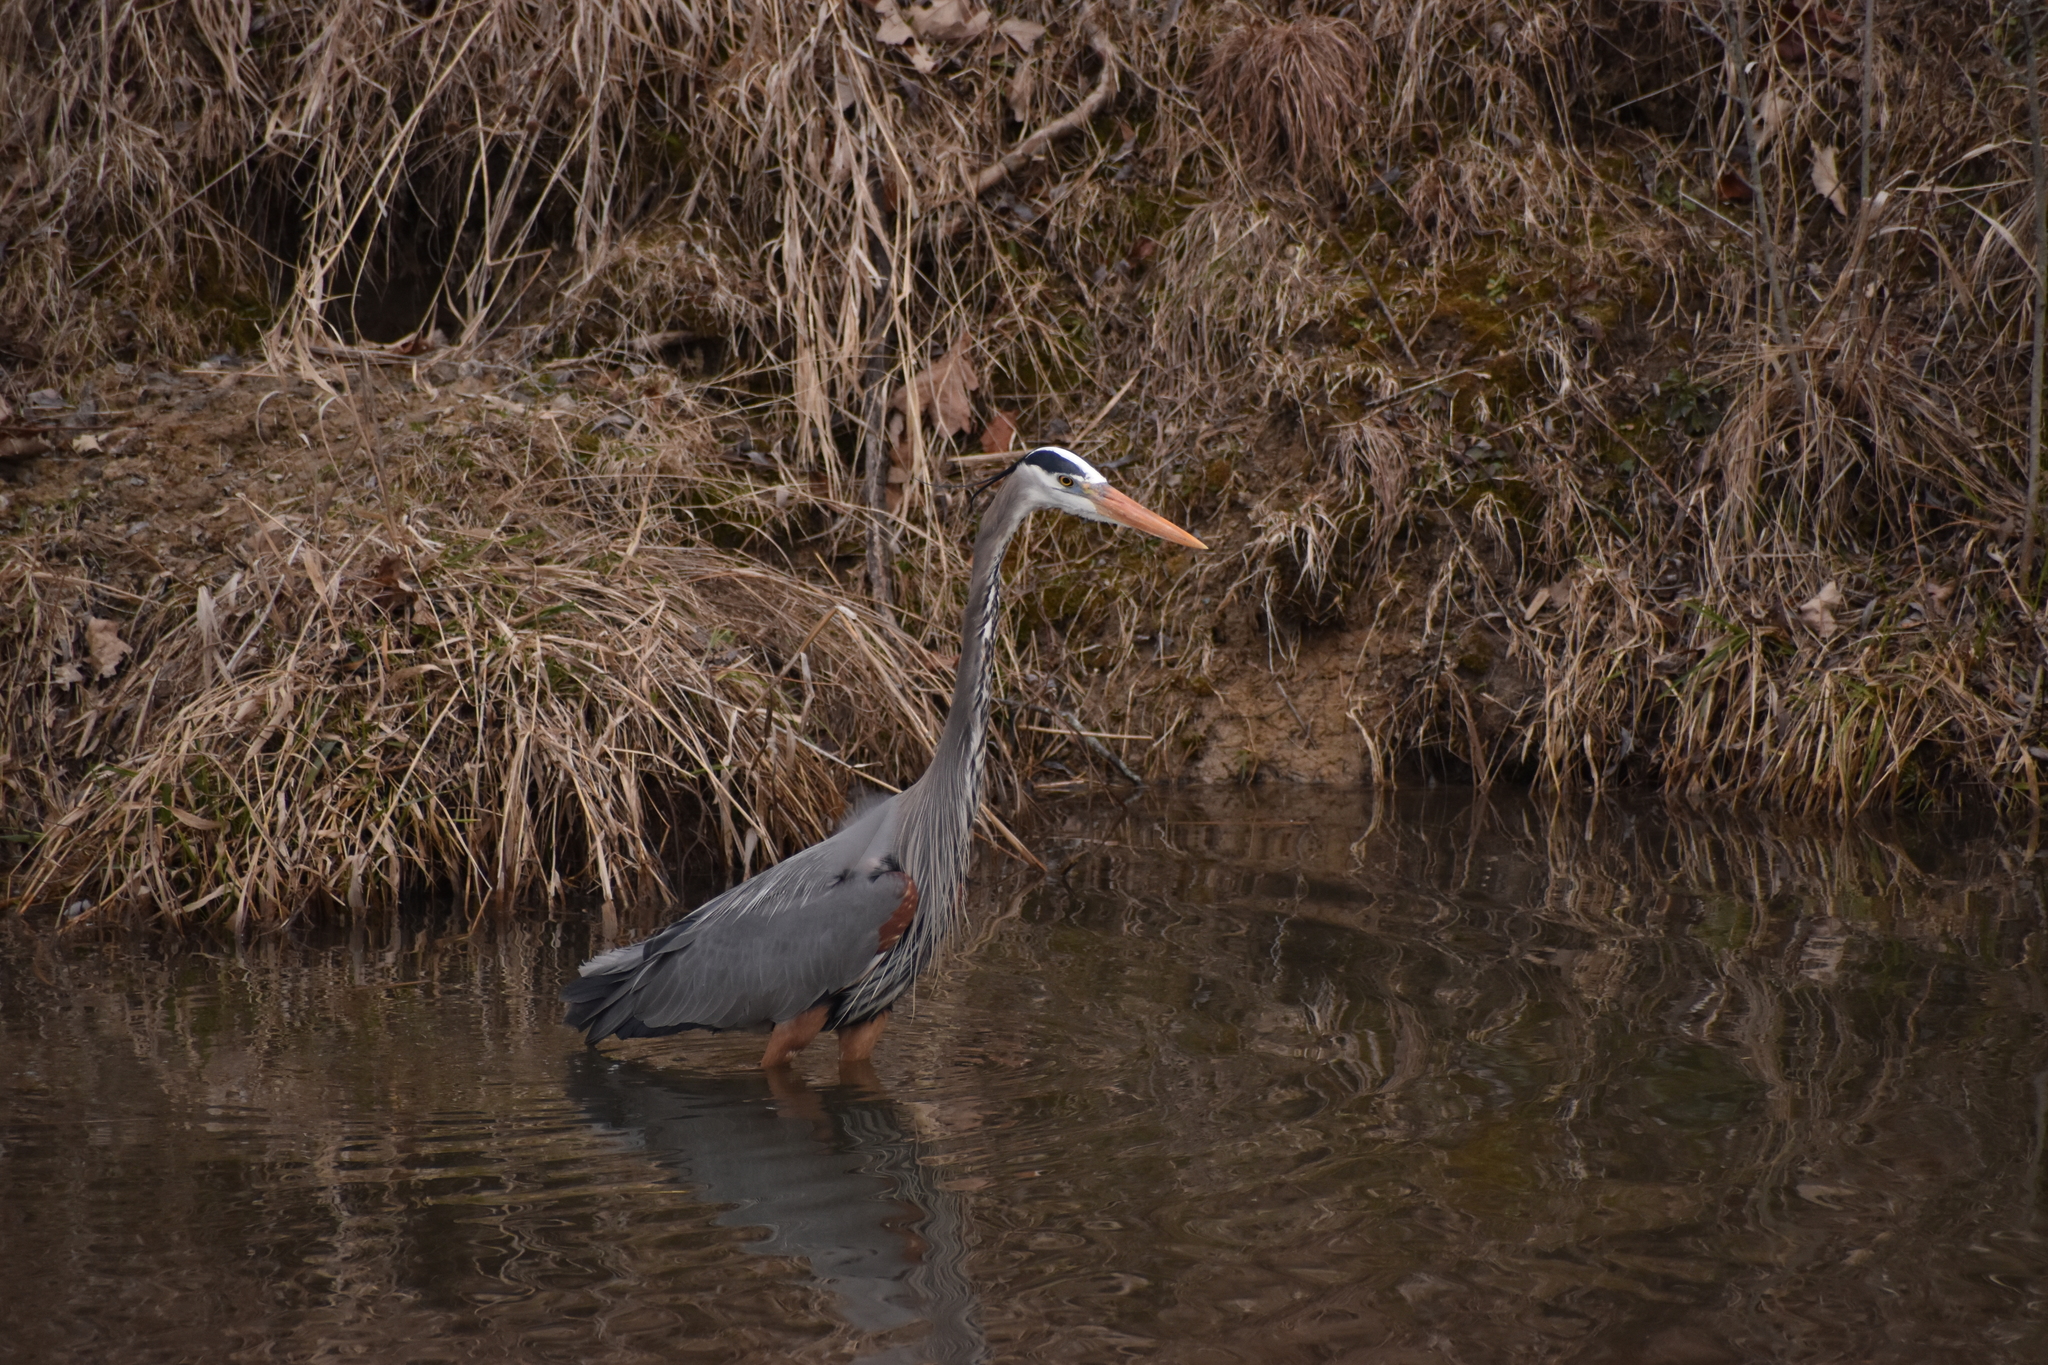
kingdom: Animalia
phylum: Chordata
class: Aves
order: Pelecaniformes
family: Ardeidae
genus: Ardea
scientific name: Ardea herodias
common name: Great blue heron
